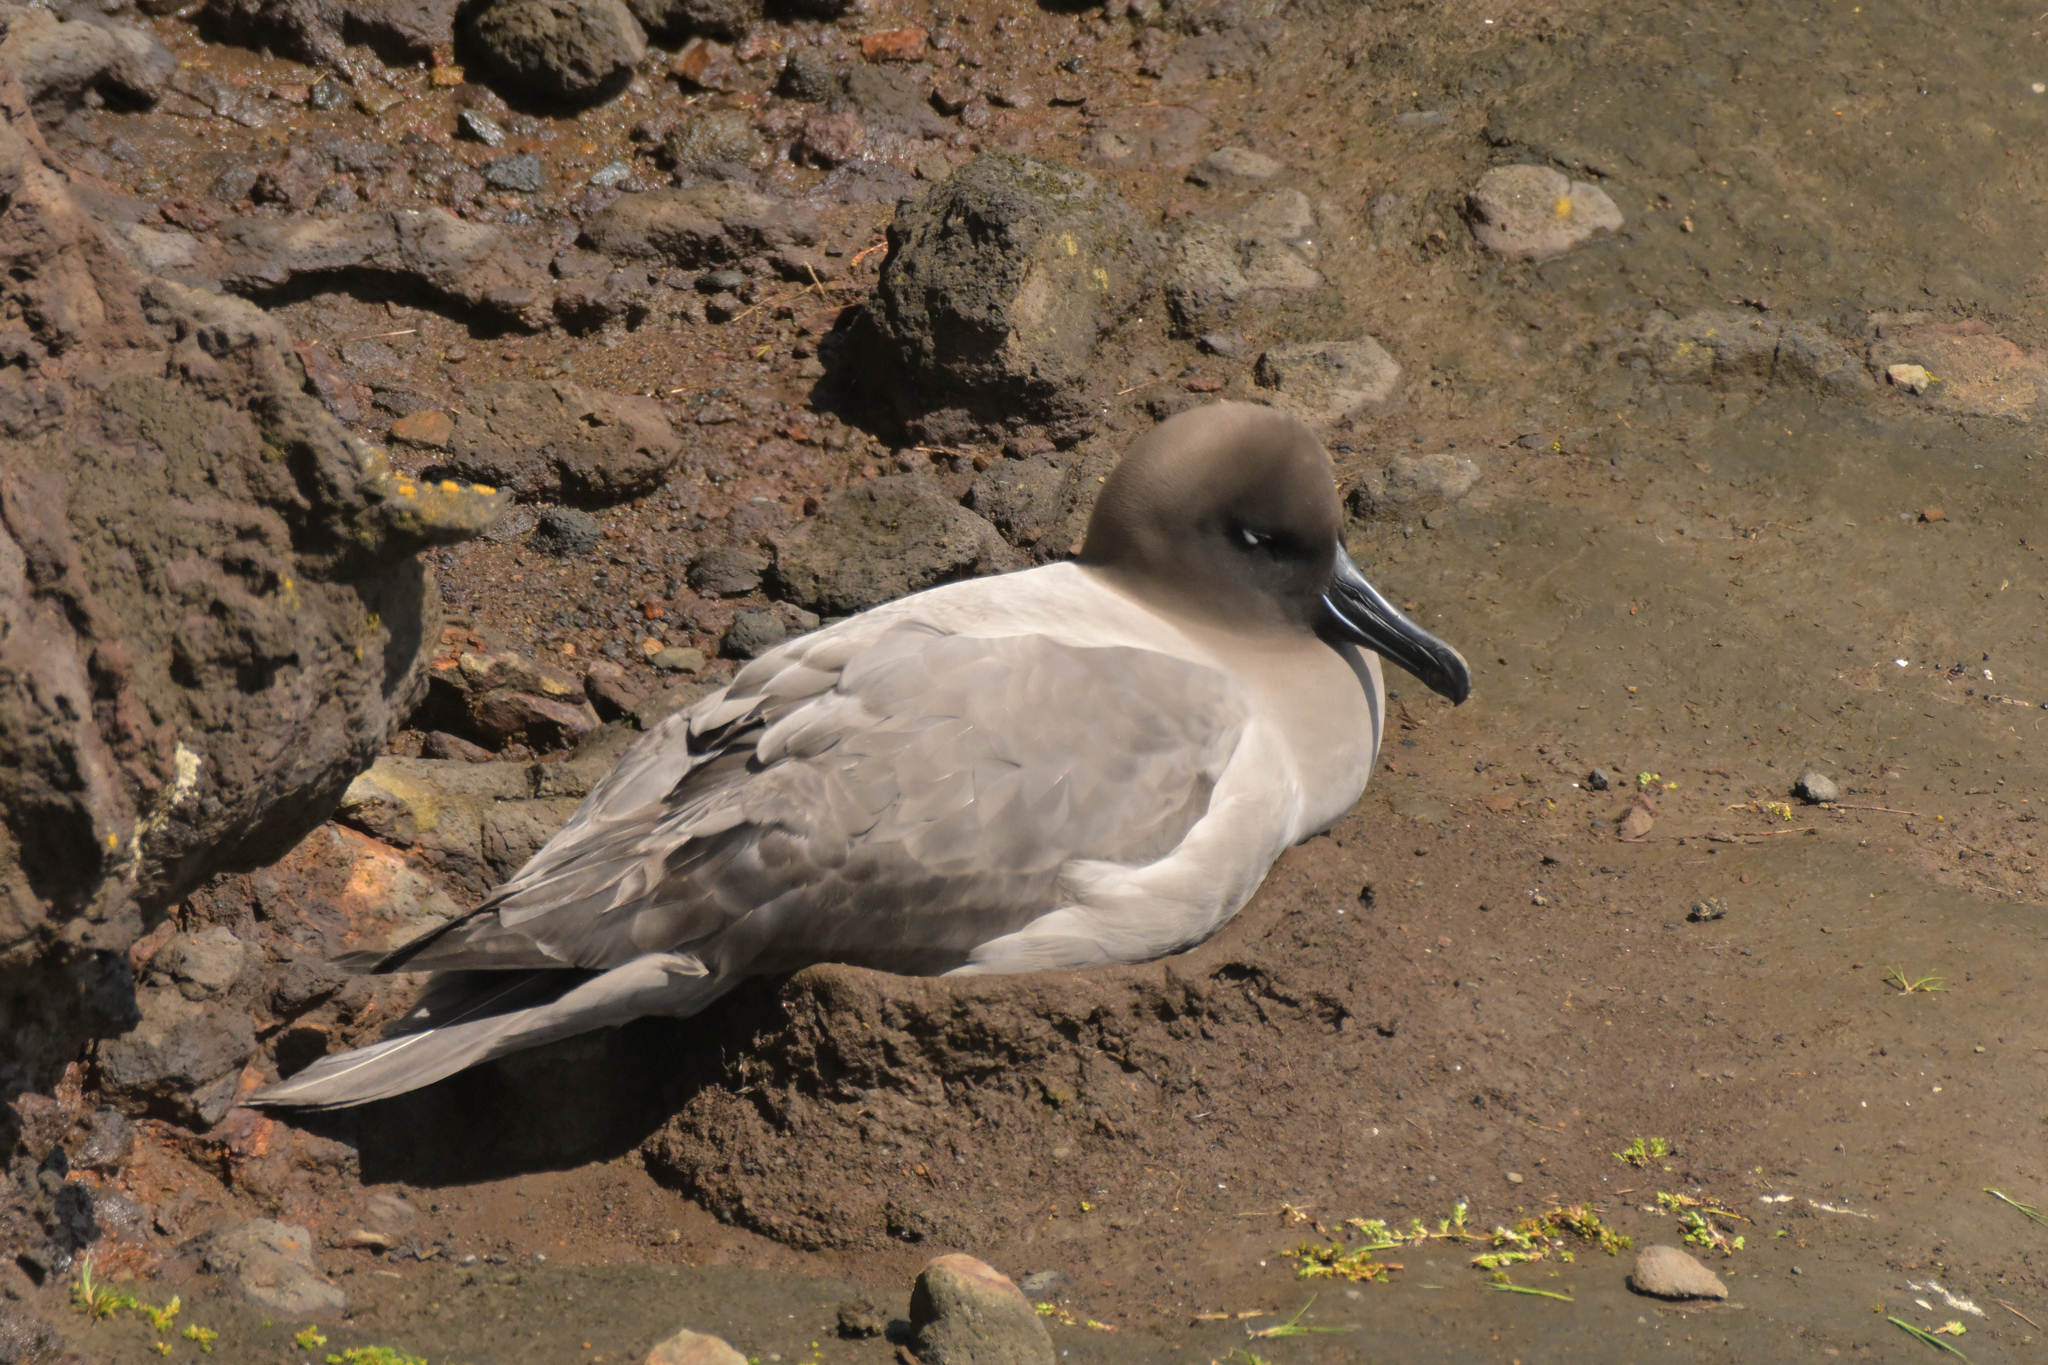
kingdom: Animalia
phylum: Chordata
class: Aves
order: Procellariiformes
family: Diomedeidae
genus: Phoebetria
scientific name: Phoebetria palpebrata
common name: Light-mantled albatross
